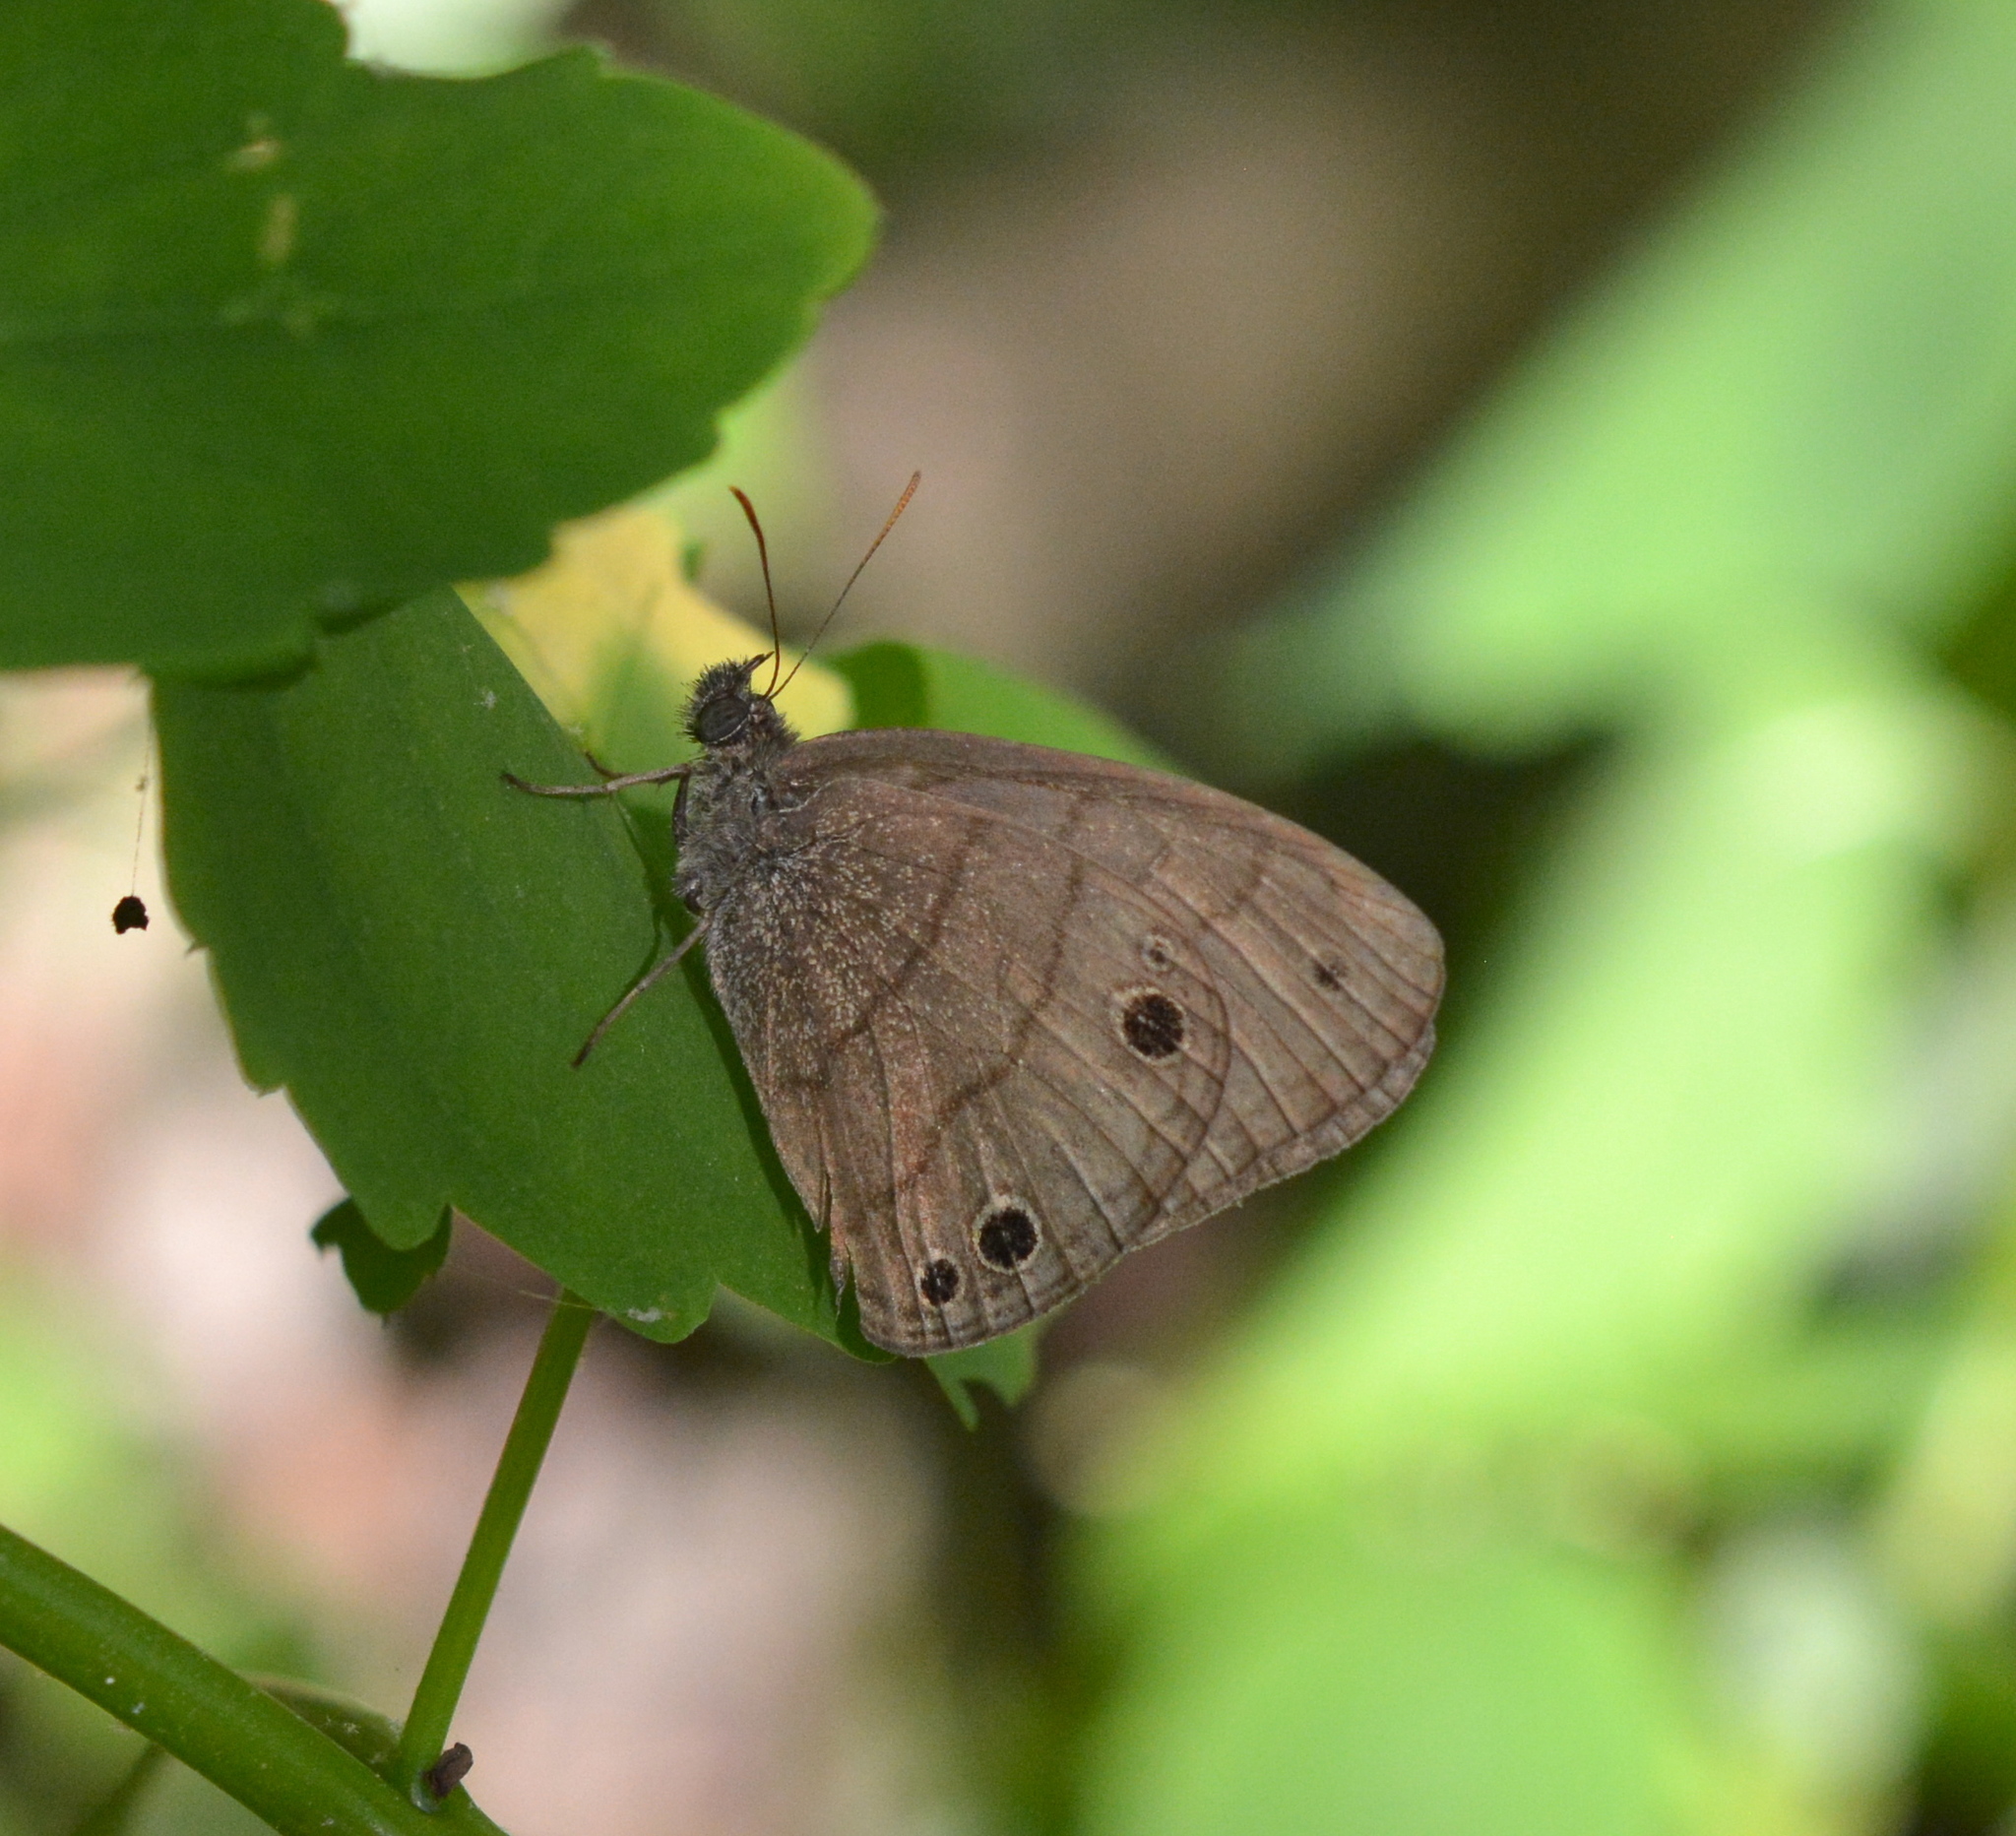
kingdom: Animalia
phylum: Arthropoda
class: Insecta
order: Lepidoptera
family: Nymphalidae
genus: Hermeuptychia
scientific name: Hermeuptychia intricata
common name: Intricate satyr
